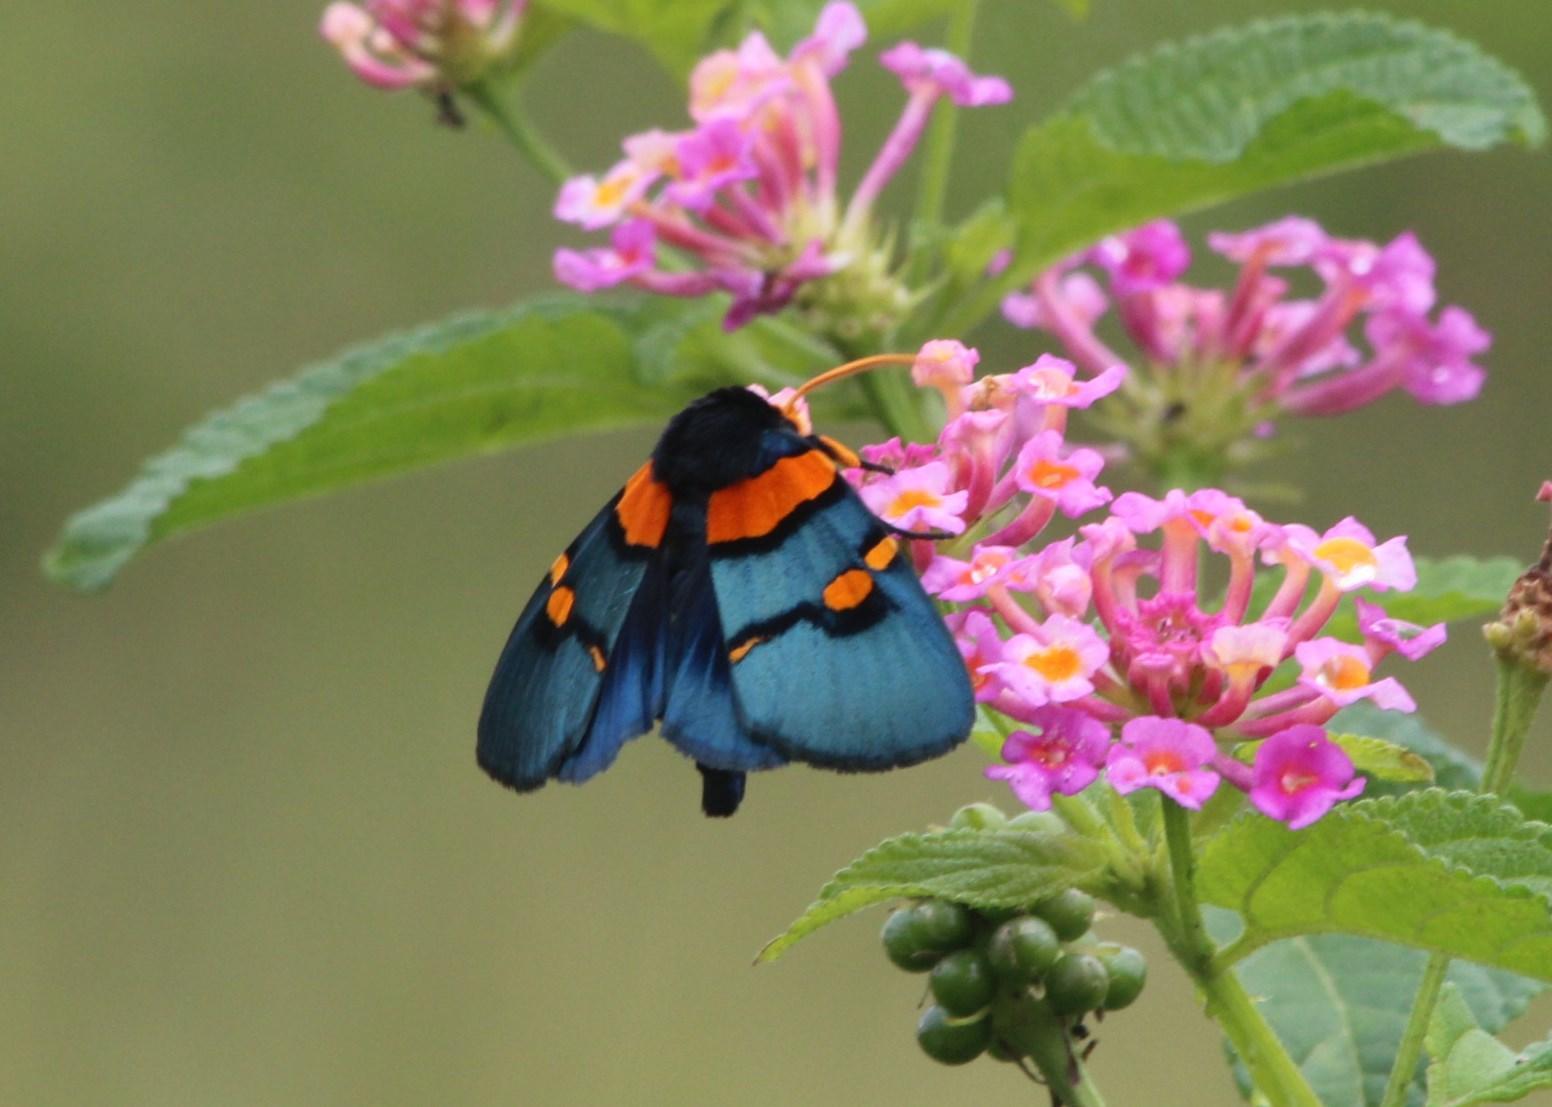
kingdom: Plantae
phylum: Tracheophyta
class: Magnoliopsida
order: Lamiales
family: Verbenaceae
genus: Lantana
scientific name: Lantana camara
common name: Lantana
